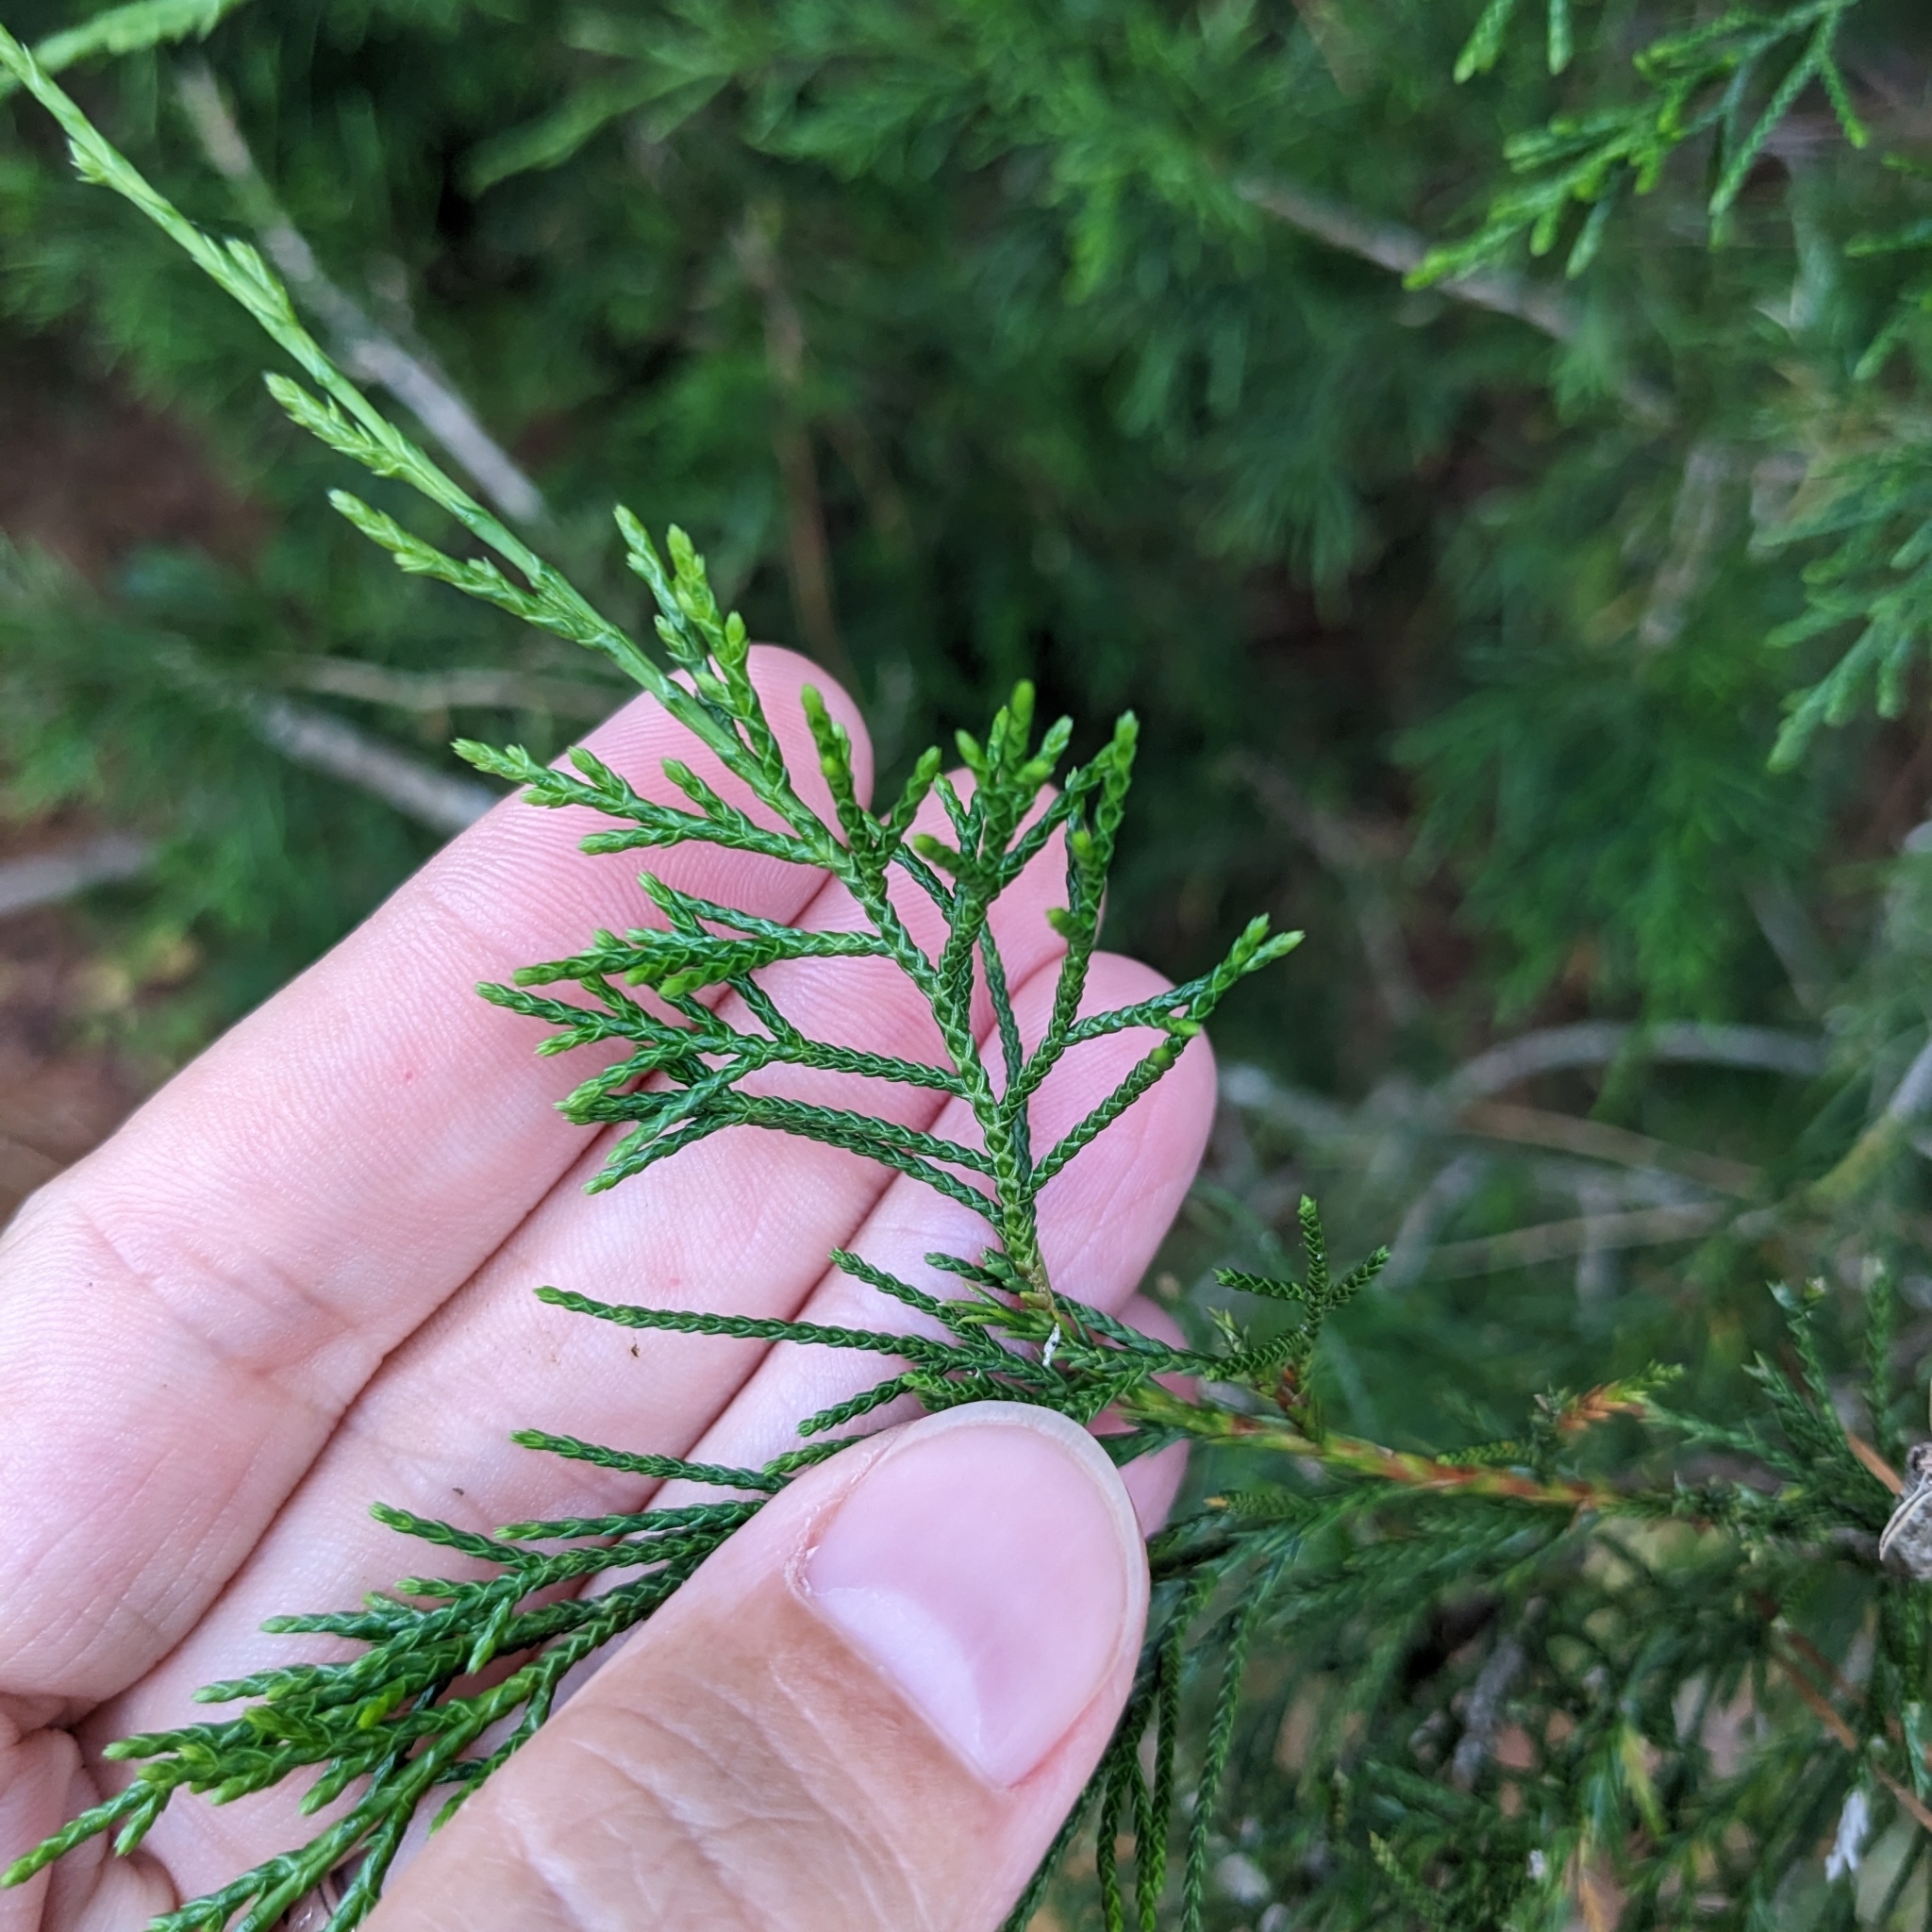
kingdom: Plantae
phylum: Tracheophyta
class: Pinopsida
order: Pinales
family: Cupressaceae
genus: Juniperus
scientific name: Juniperus virginiana
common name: Red juniper
